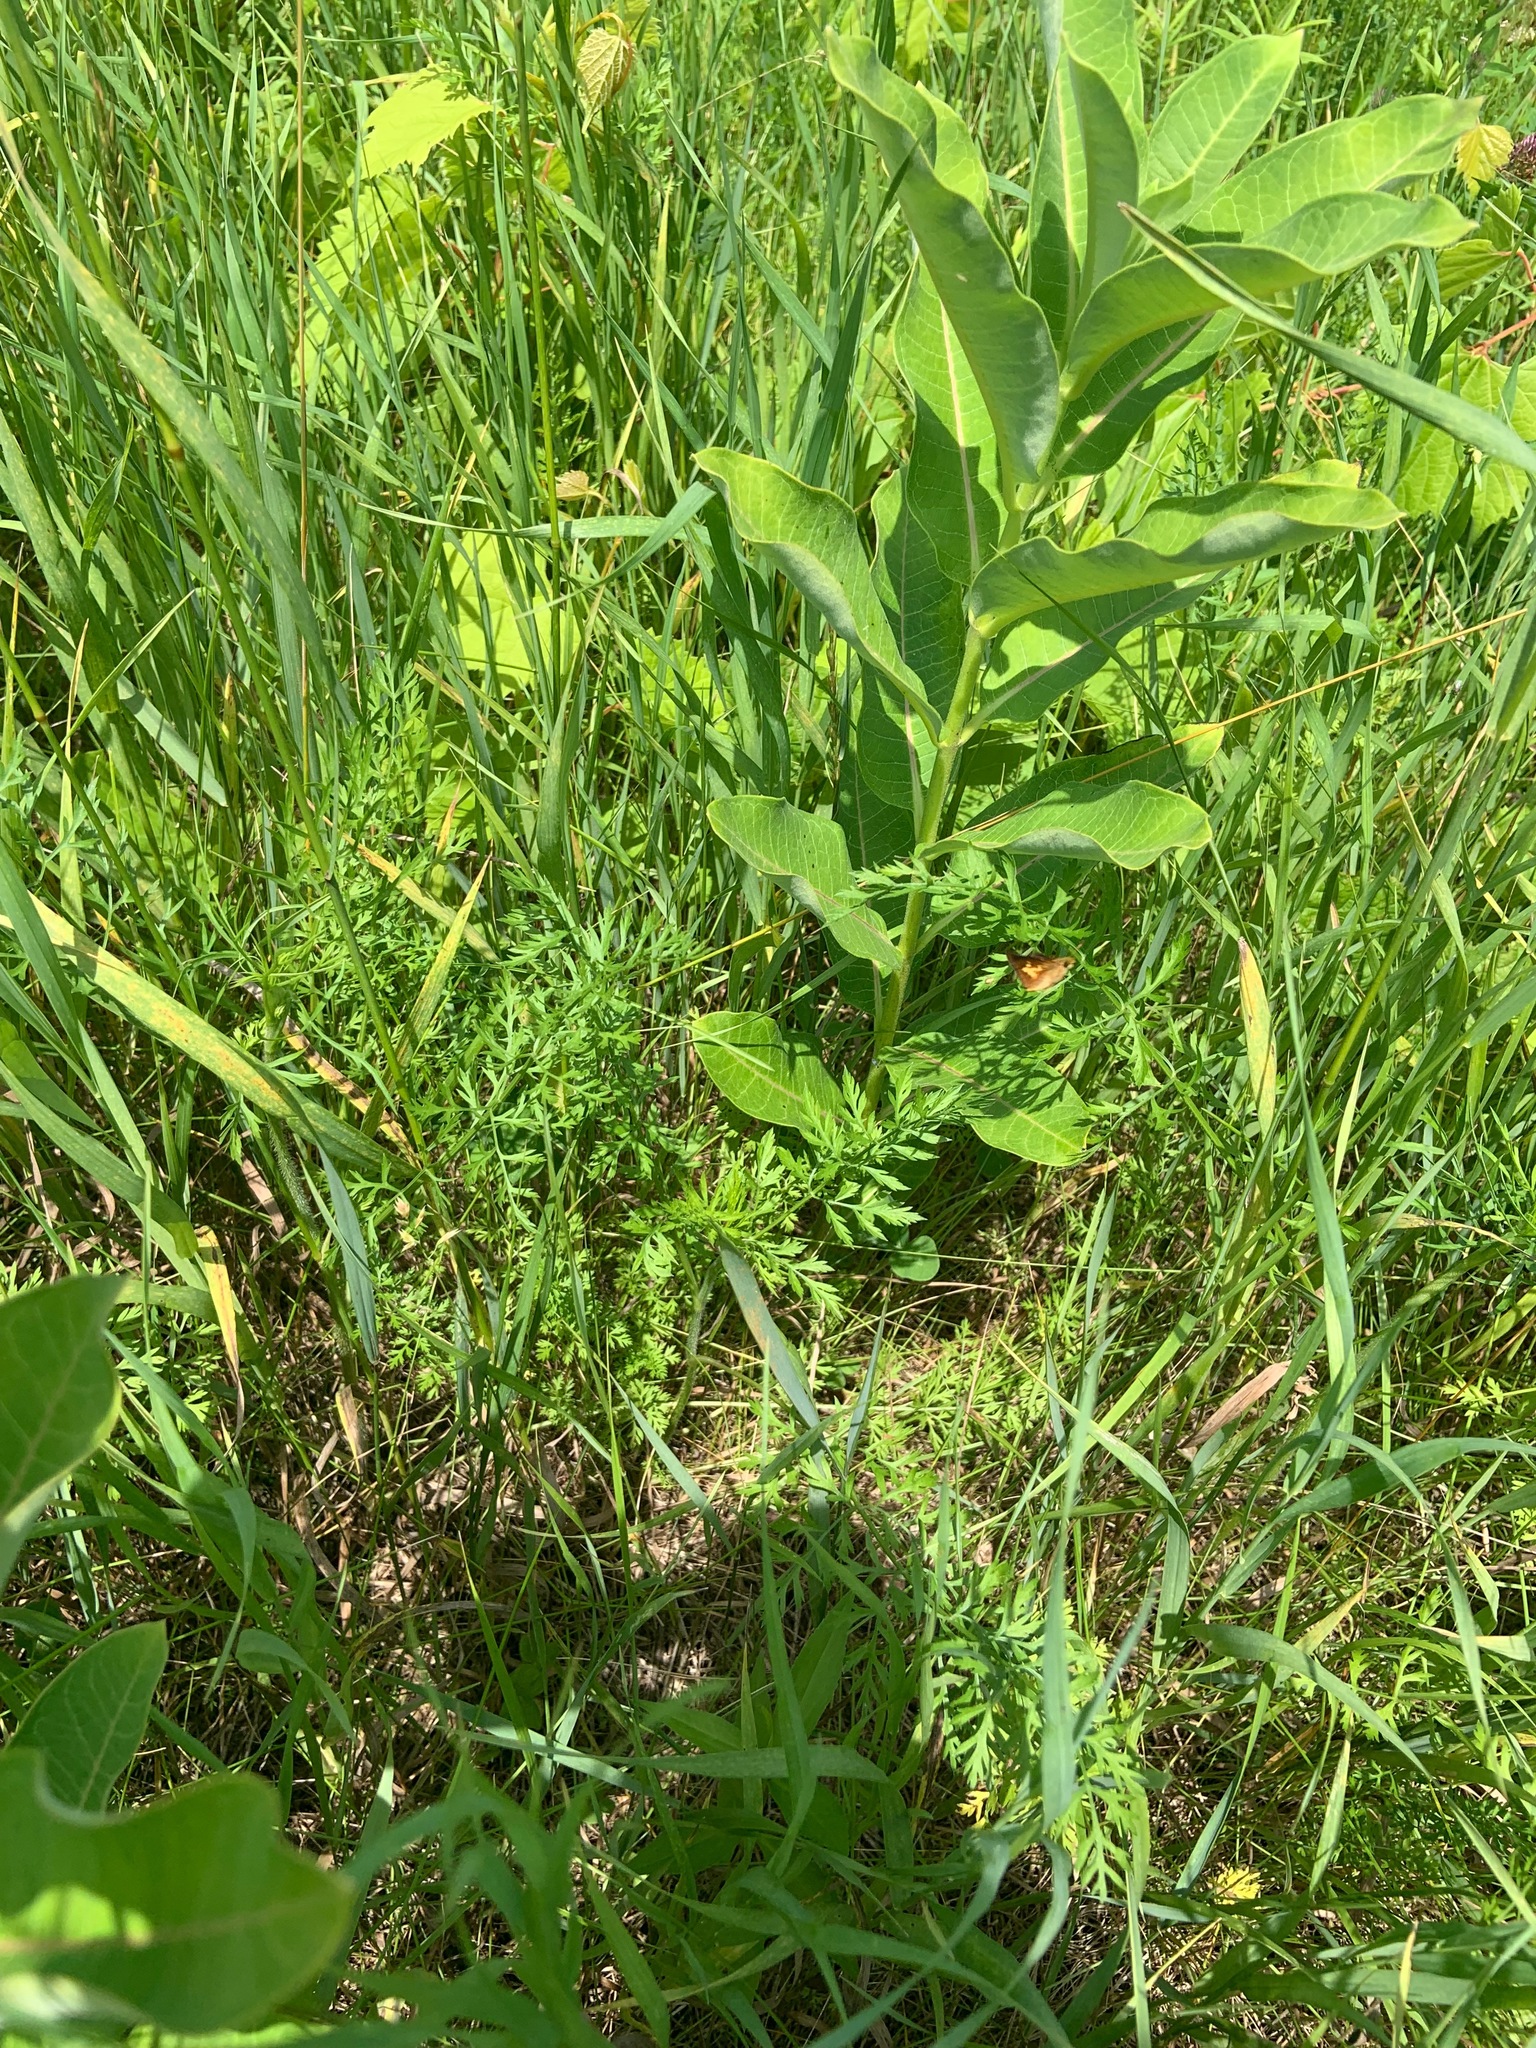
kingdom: Animalia
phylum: Arthropoda
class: Insecta
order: Lepidoptera
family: Hesperiidae
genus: Poanes
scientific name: Poanes massasoit
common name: Mulberrywing
